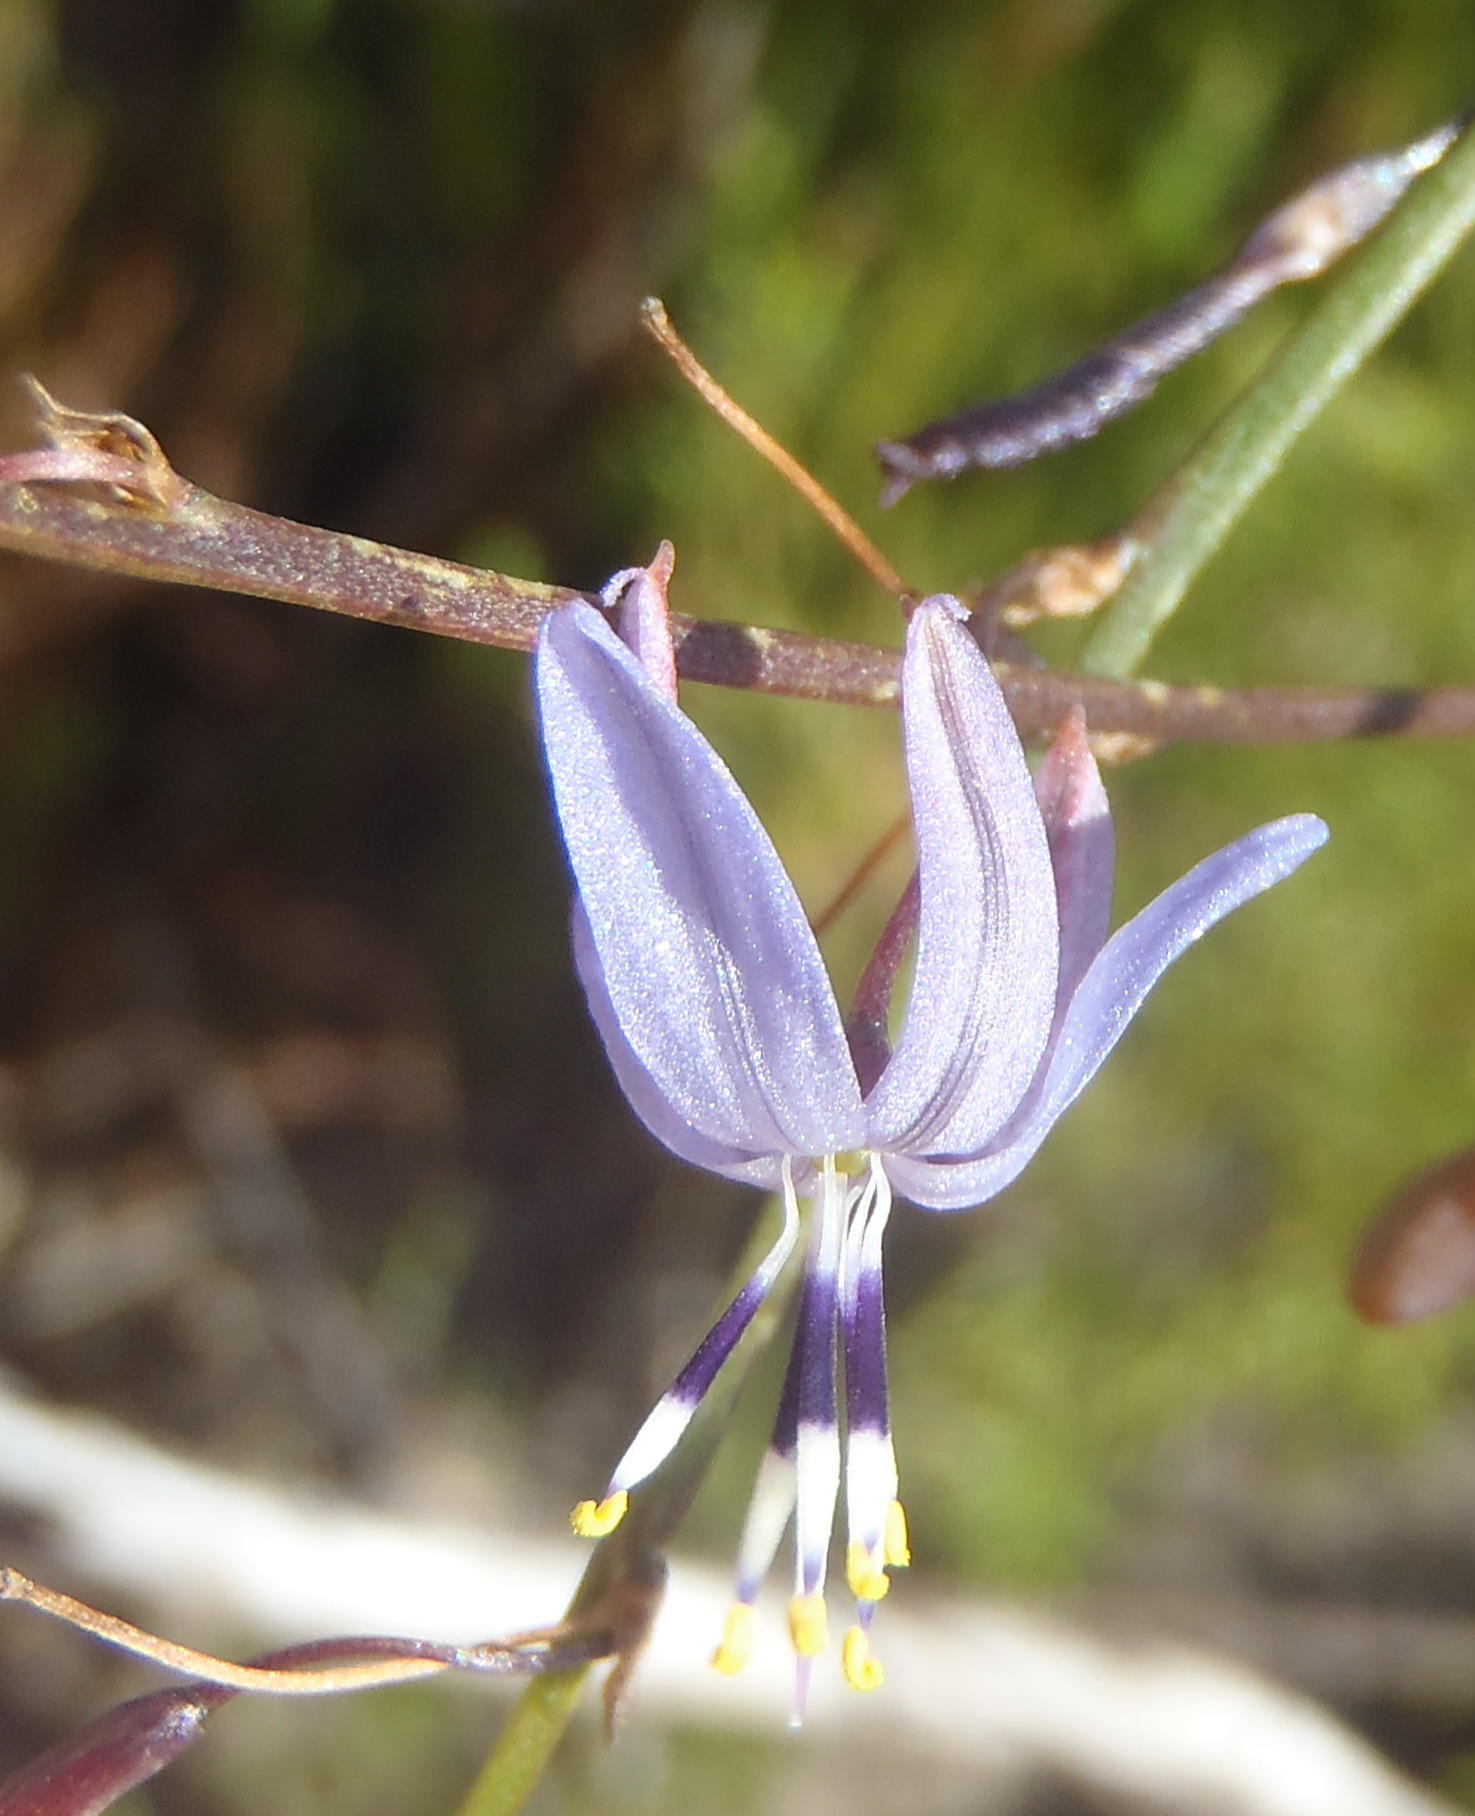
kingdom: Plantae
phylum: Tracheophyta
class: Liliopsida
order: Asparagales
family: Asphodelaceae
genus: Caesia
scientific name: Caesia contorta
